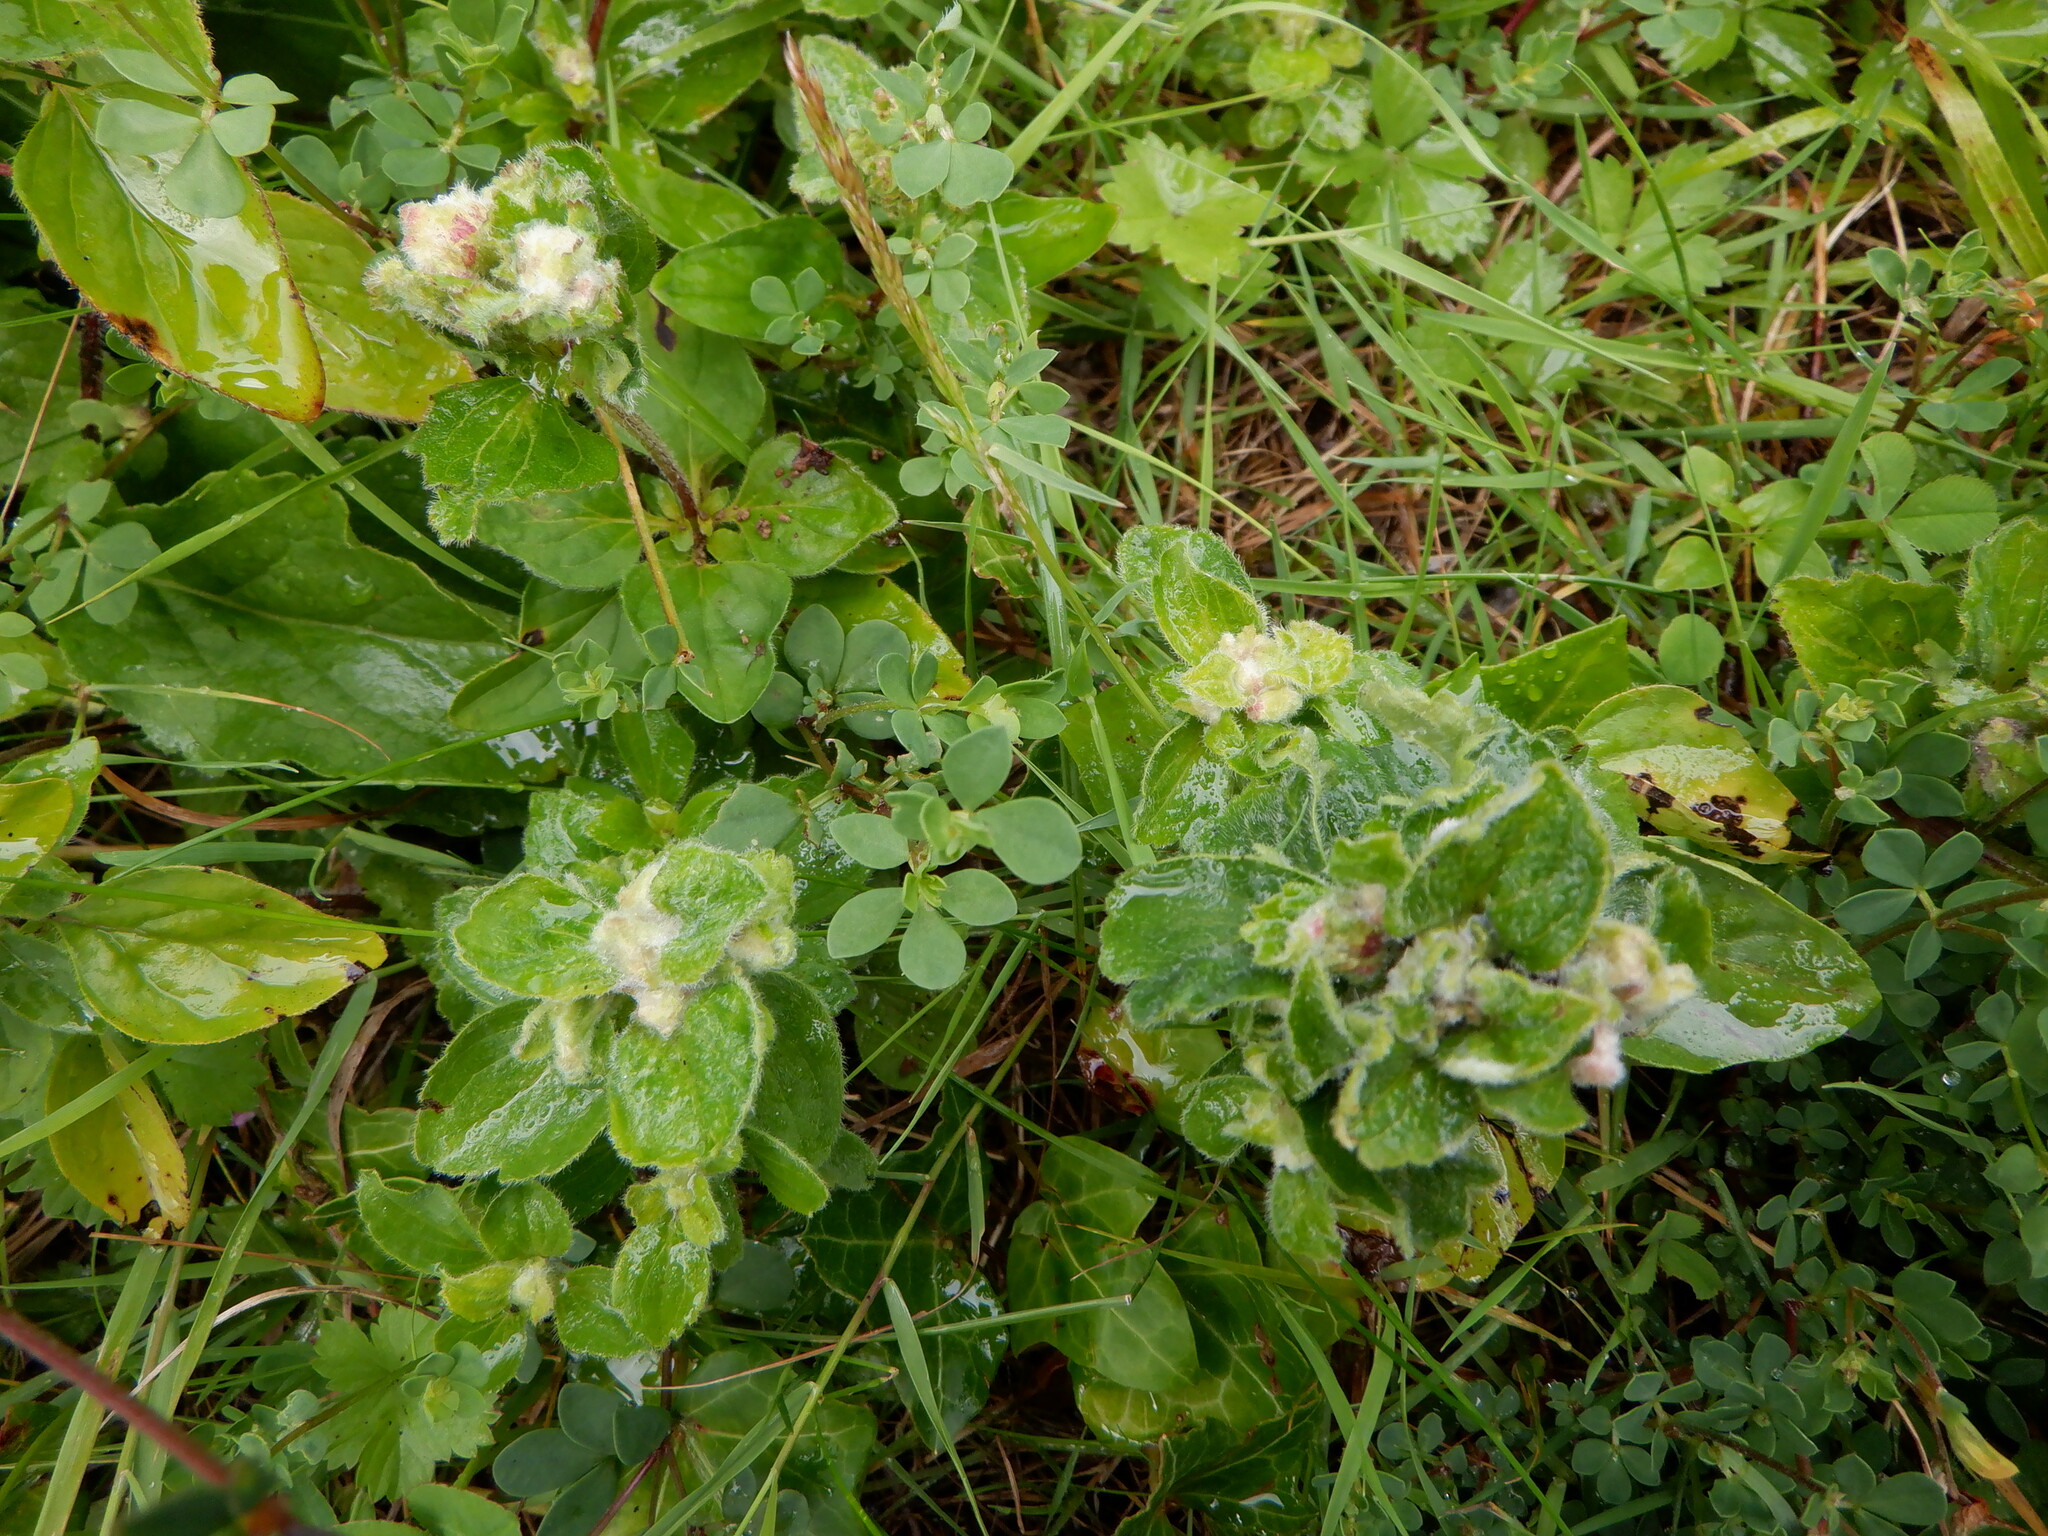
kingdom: Animalia
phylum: Arthropoda
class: Arachnida
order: Trombidiformes
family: Eriophyidae
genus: Aceria
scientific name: Aceria labiatiflorae
